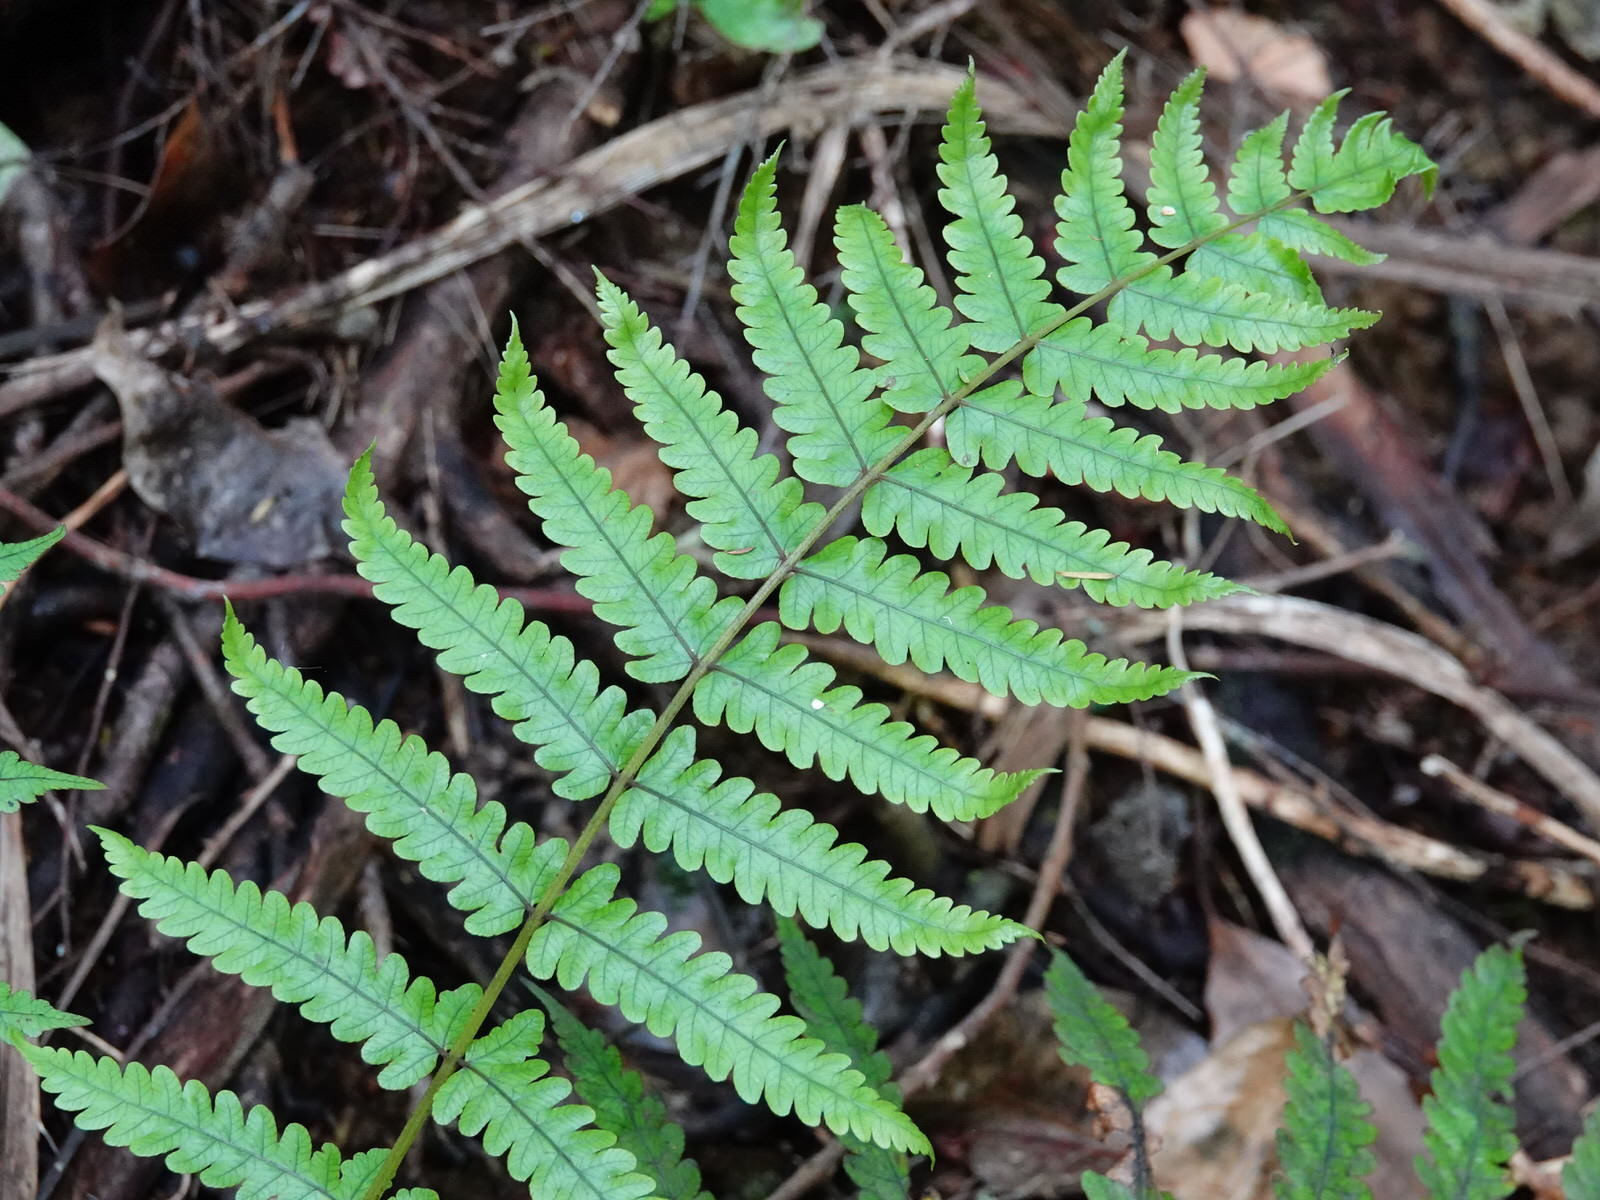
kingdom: Plantae
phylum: Tracheophyta
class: Polypodiopsida
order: Polypodiales
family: Thelypteridaceae
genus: Pakau
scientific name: Pakau pennigera
